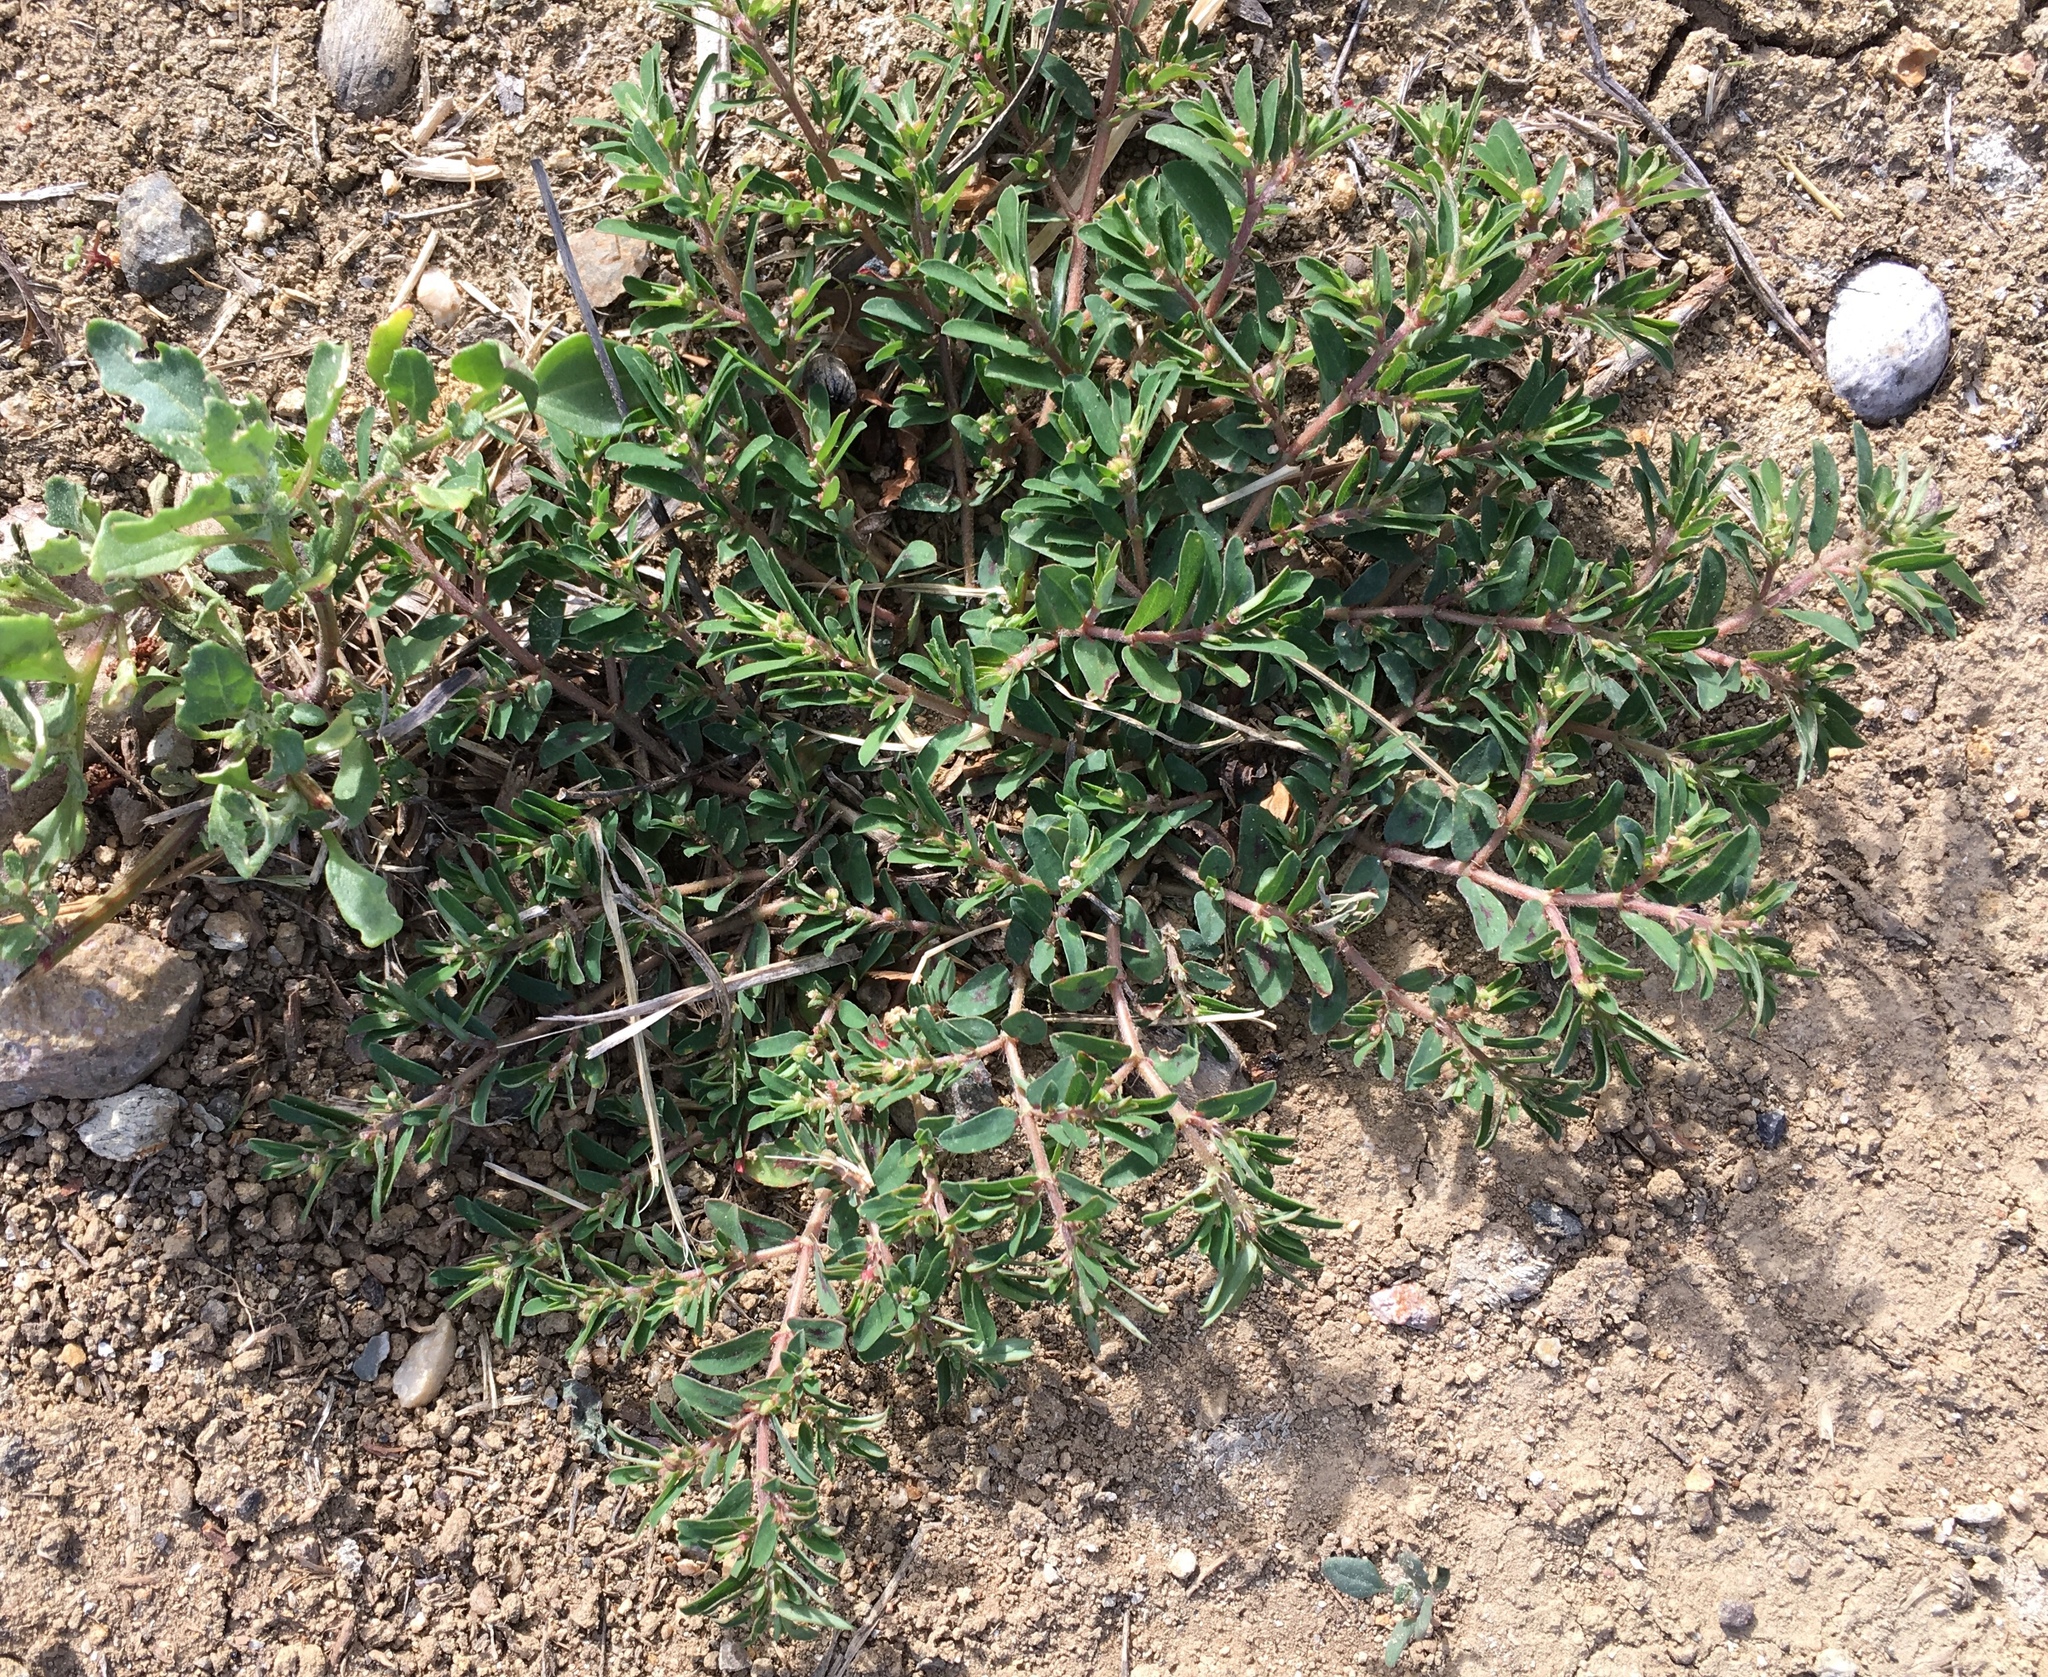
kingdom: Plantae
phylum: Tracheophyta
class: Magnoliopsida
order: Malpighiales
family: Euphorbiaceae
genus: Euphorbia
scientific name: Euphorbia maculata
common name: Spotted spurge
